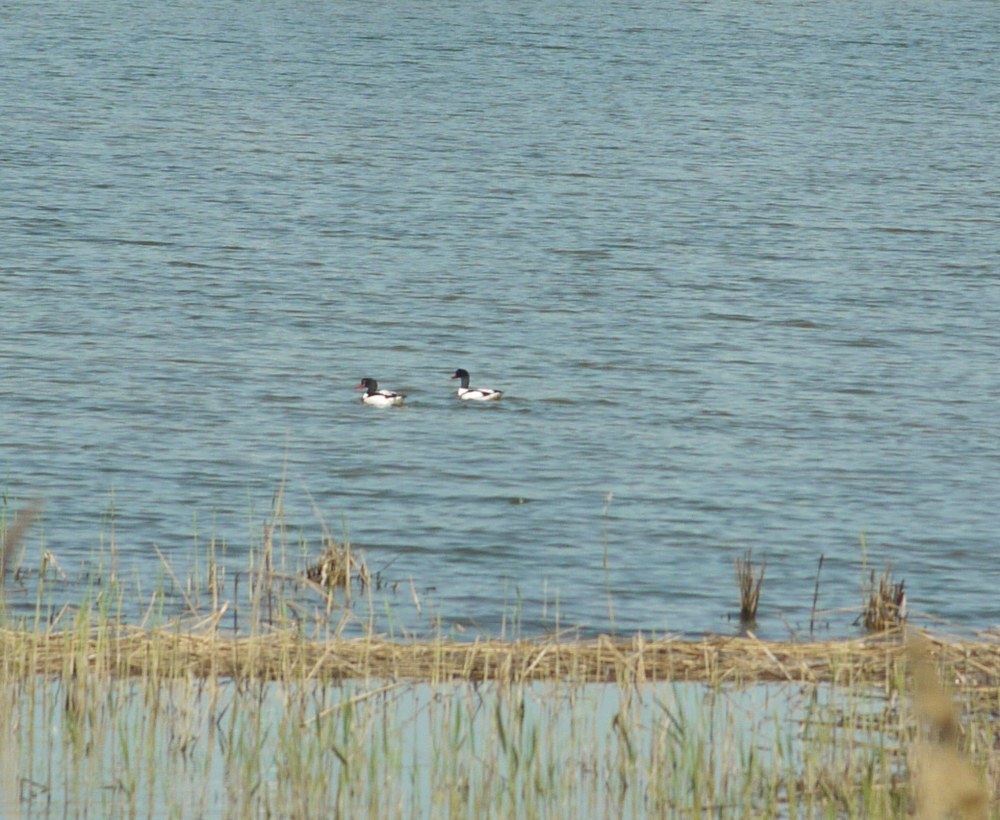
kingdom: Animalia
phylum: Chordata
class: Aves
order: Anseriformes
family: Anatidae
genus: Tadorna
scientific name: Tadorna tadorna
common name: Common shelduck
